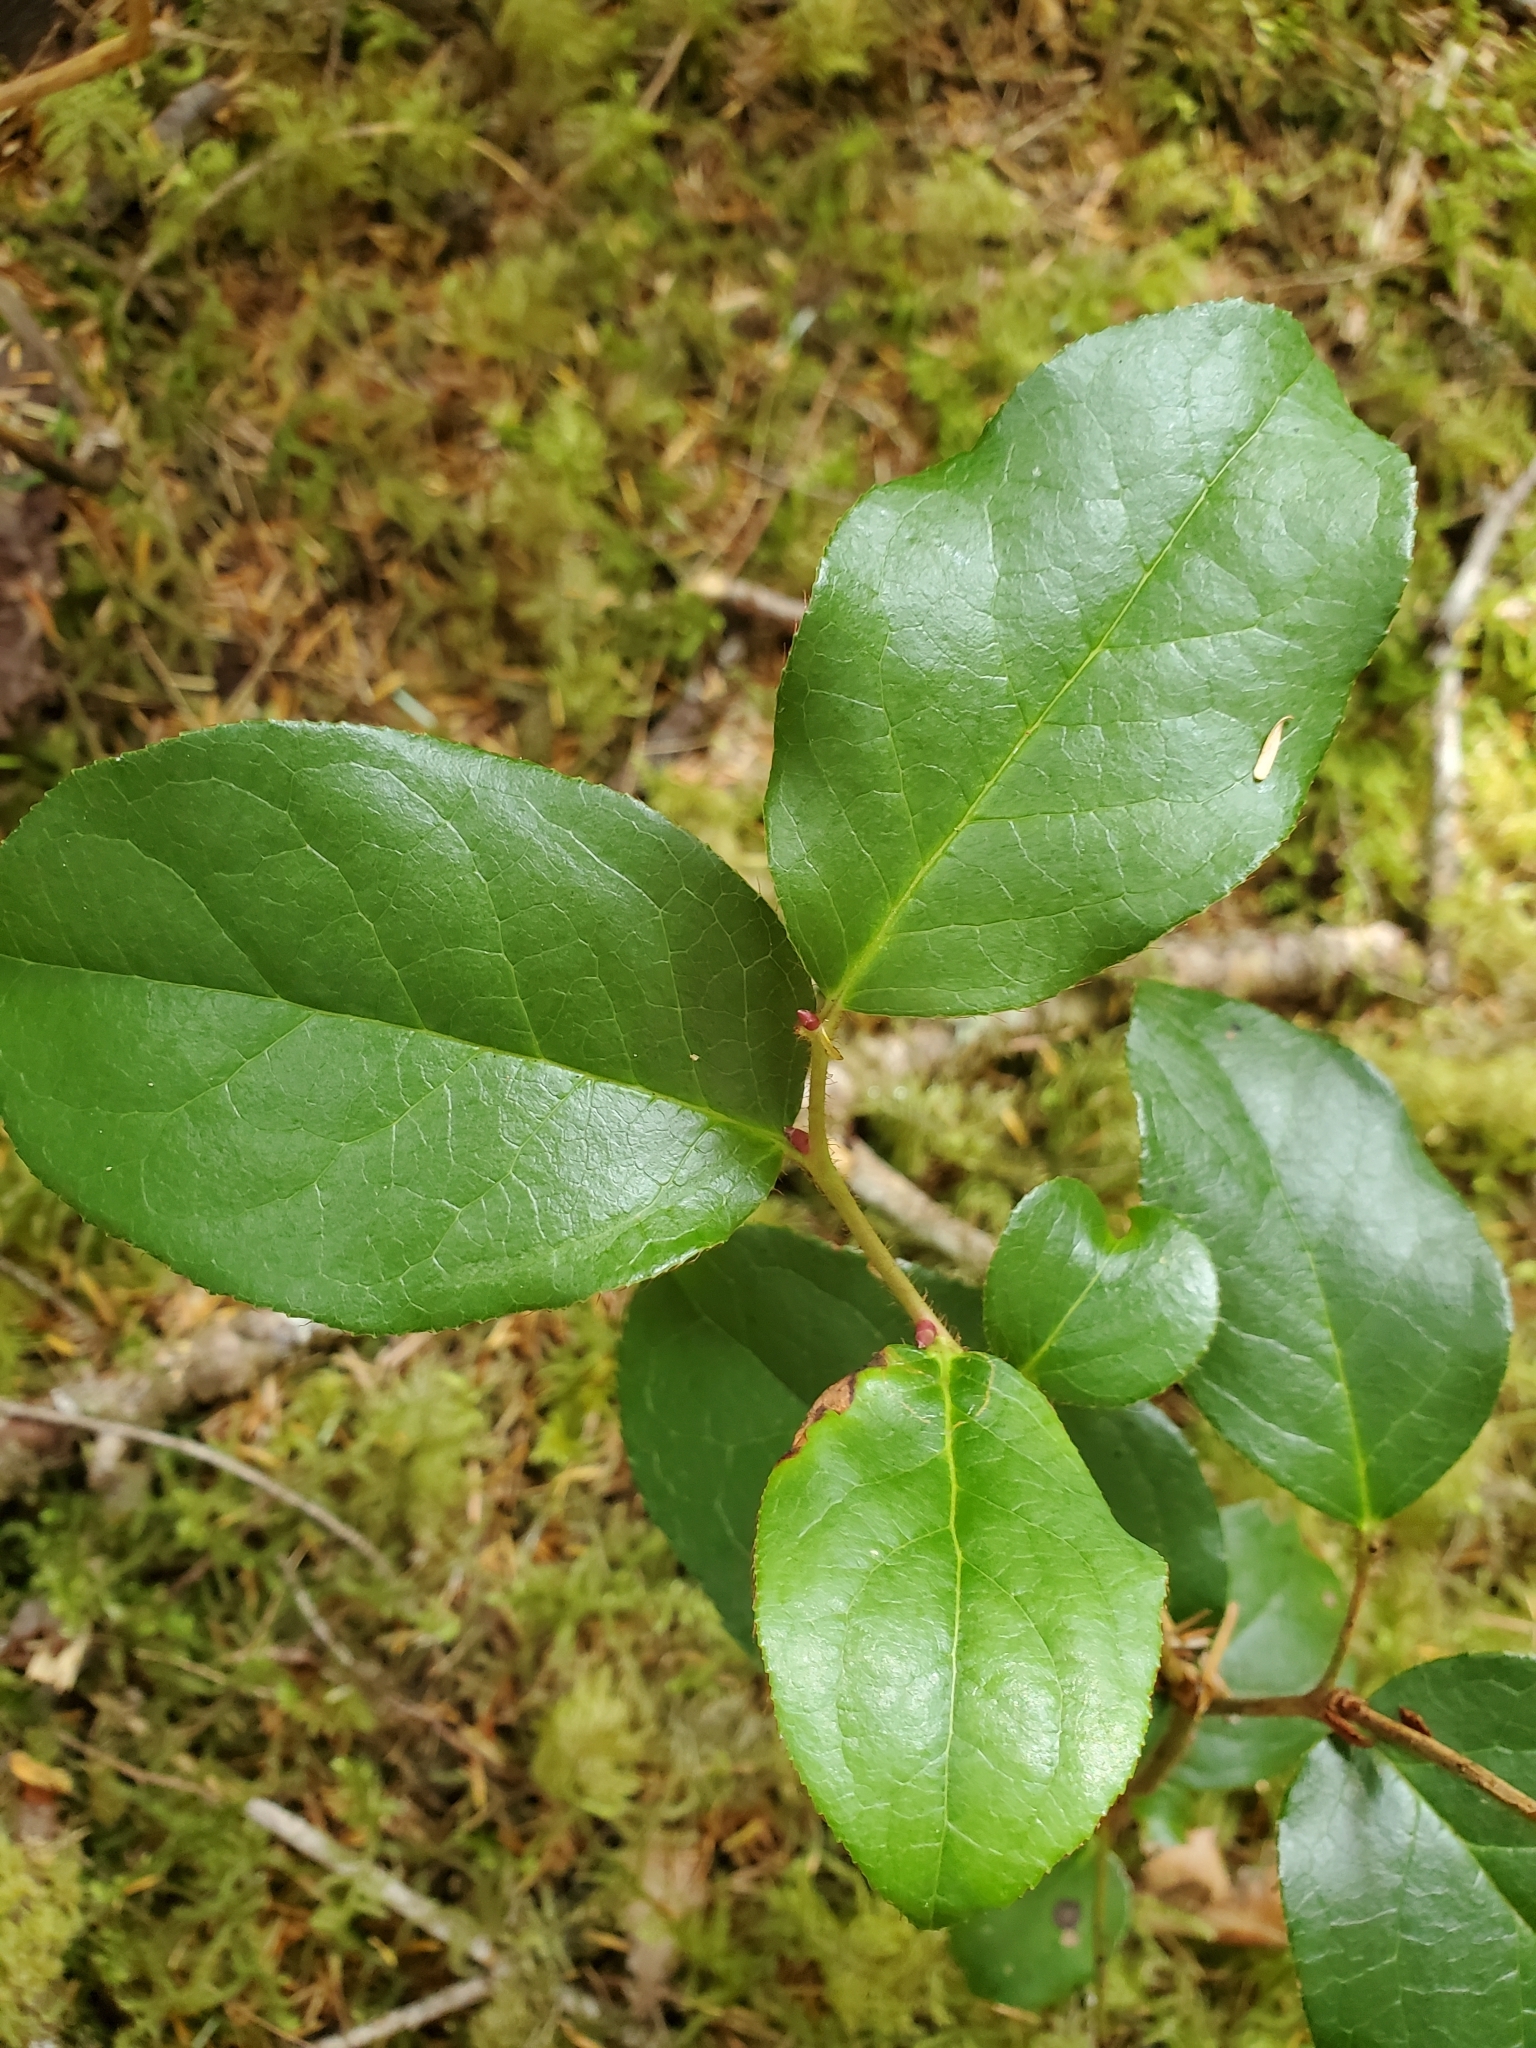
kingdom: Plantae
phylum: Tracheophyta
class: Magnoliopsida
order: Ericales
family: Ericaceae
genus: Gaultheria
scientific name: Gaultheria shallon
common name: Shallon
